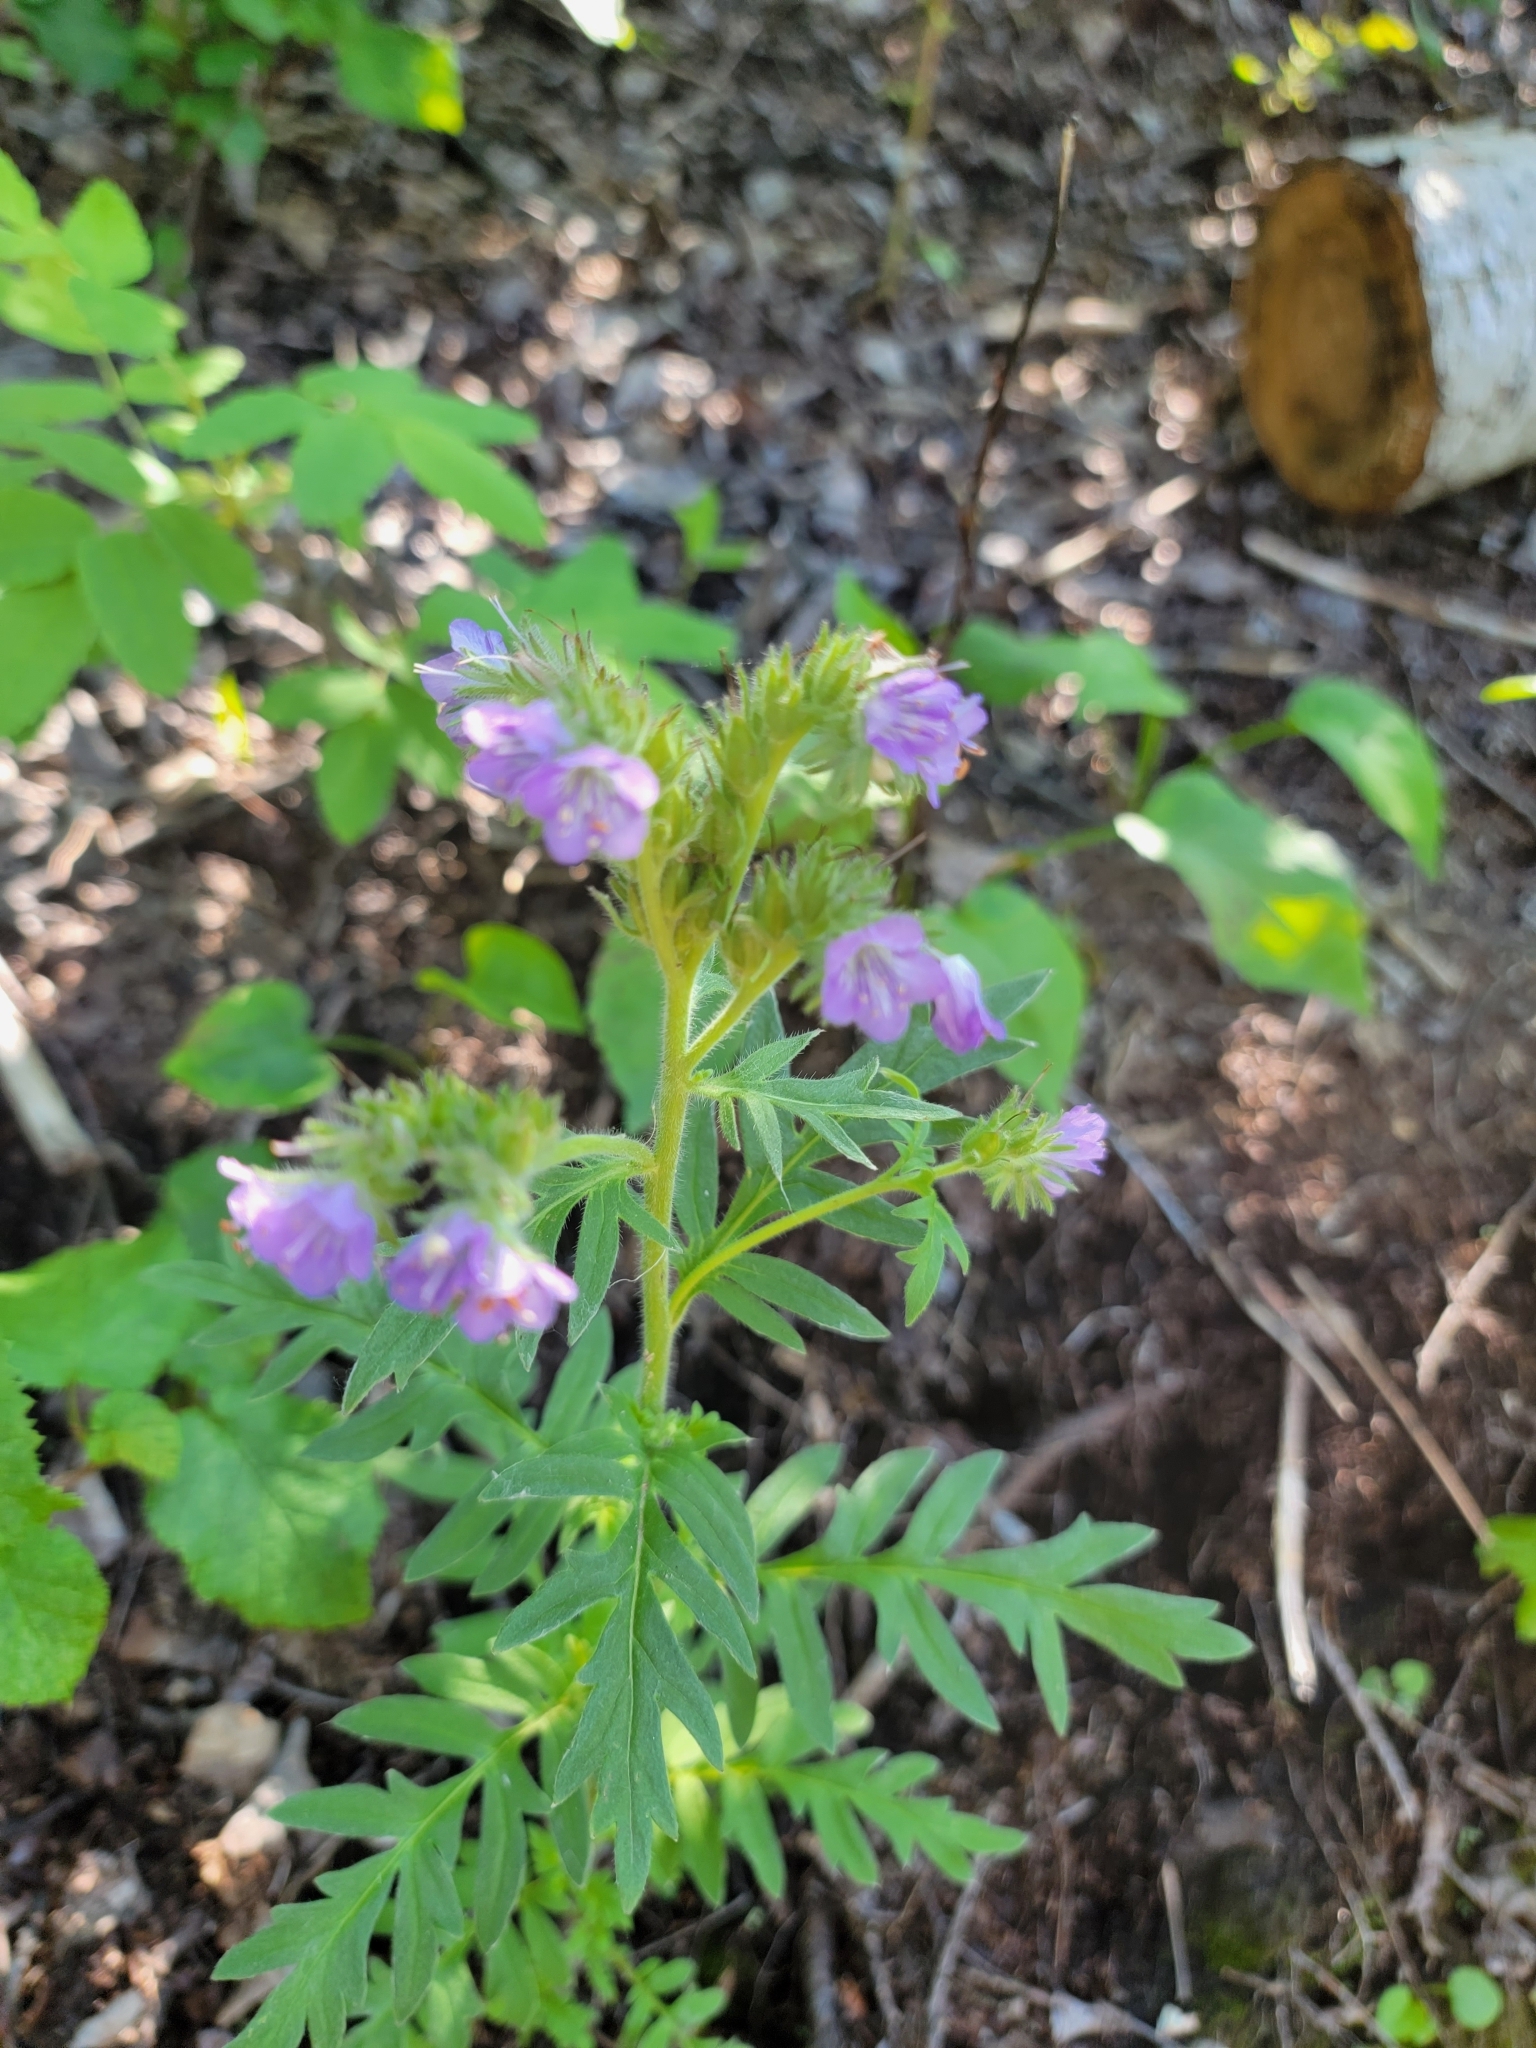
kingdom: Plantae
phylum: Tracheophyta
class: Magnoliopsida
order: Boraginales
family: Hydrophyllaceae
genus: Phacelia
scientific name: Phacelia franklinii
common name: Franklin's phacelia
